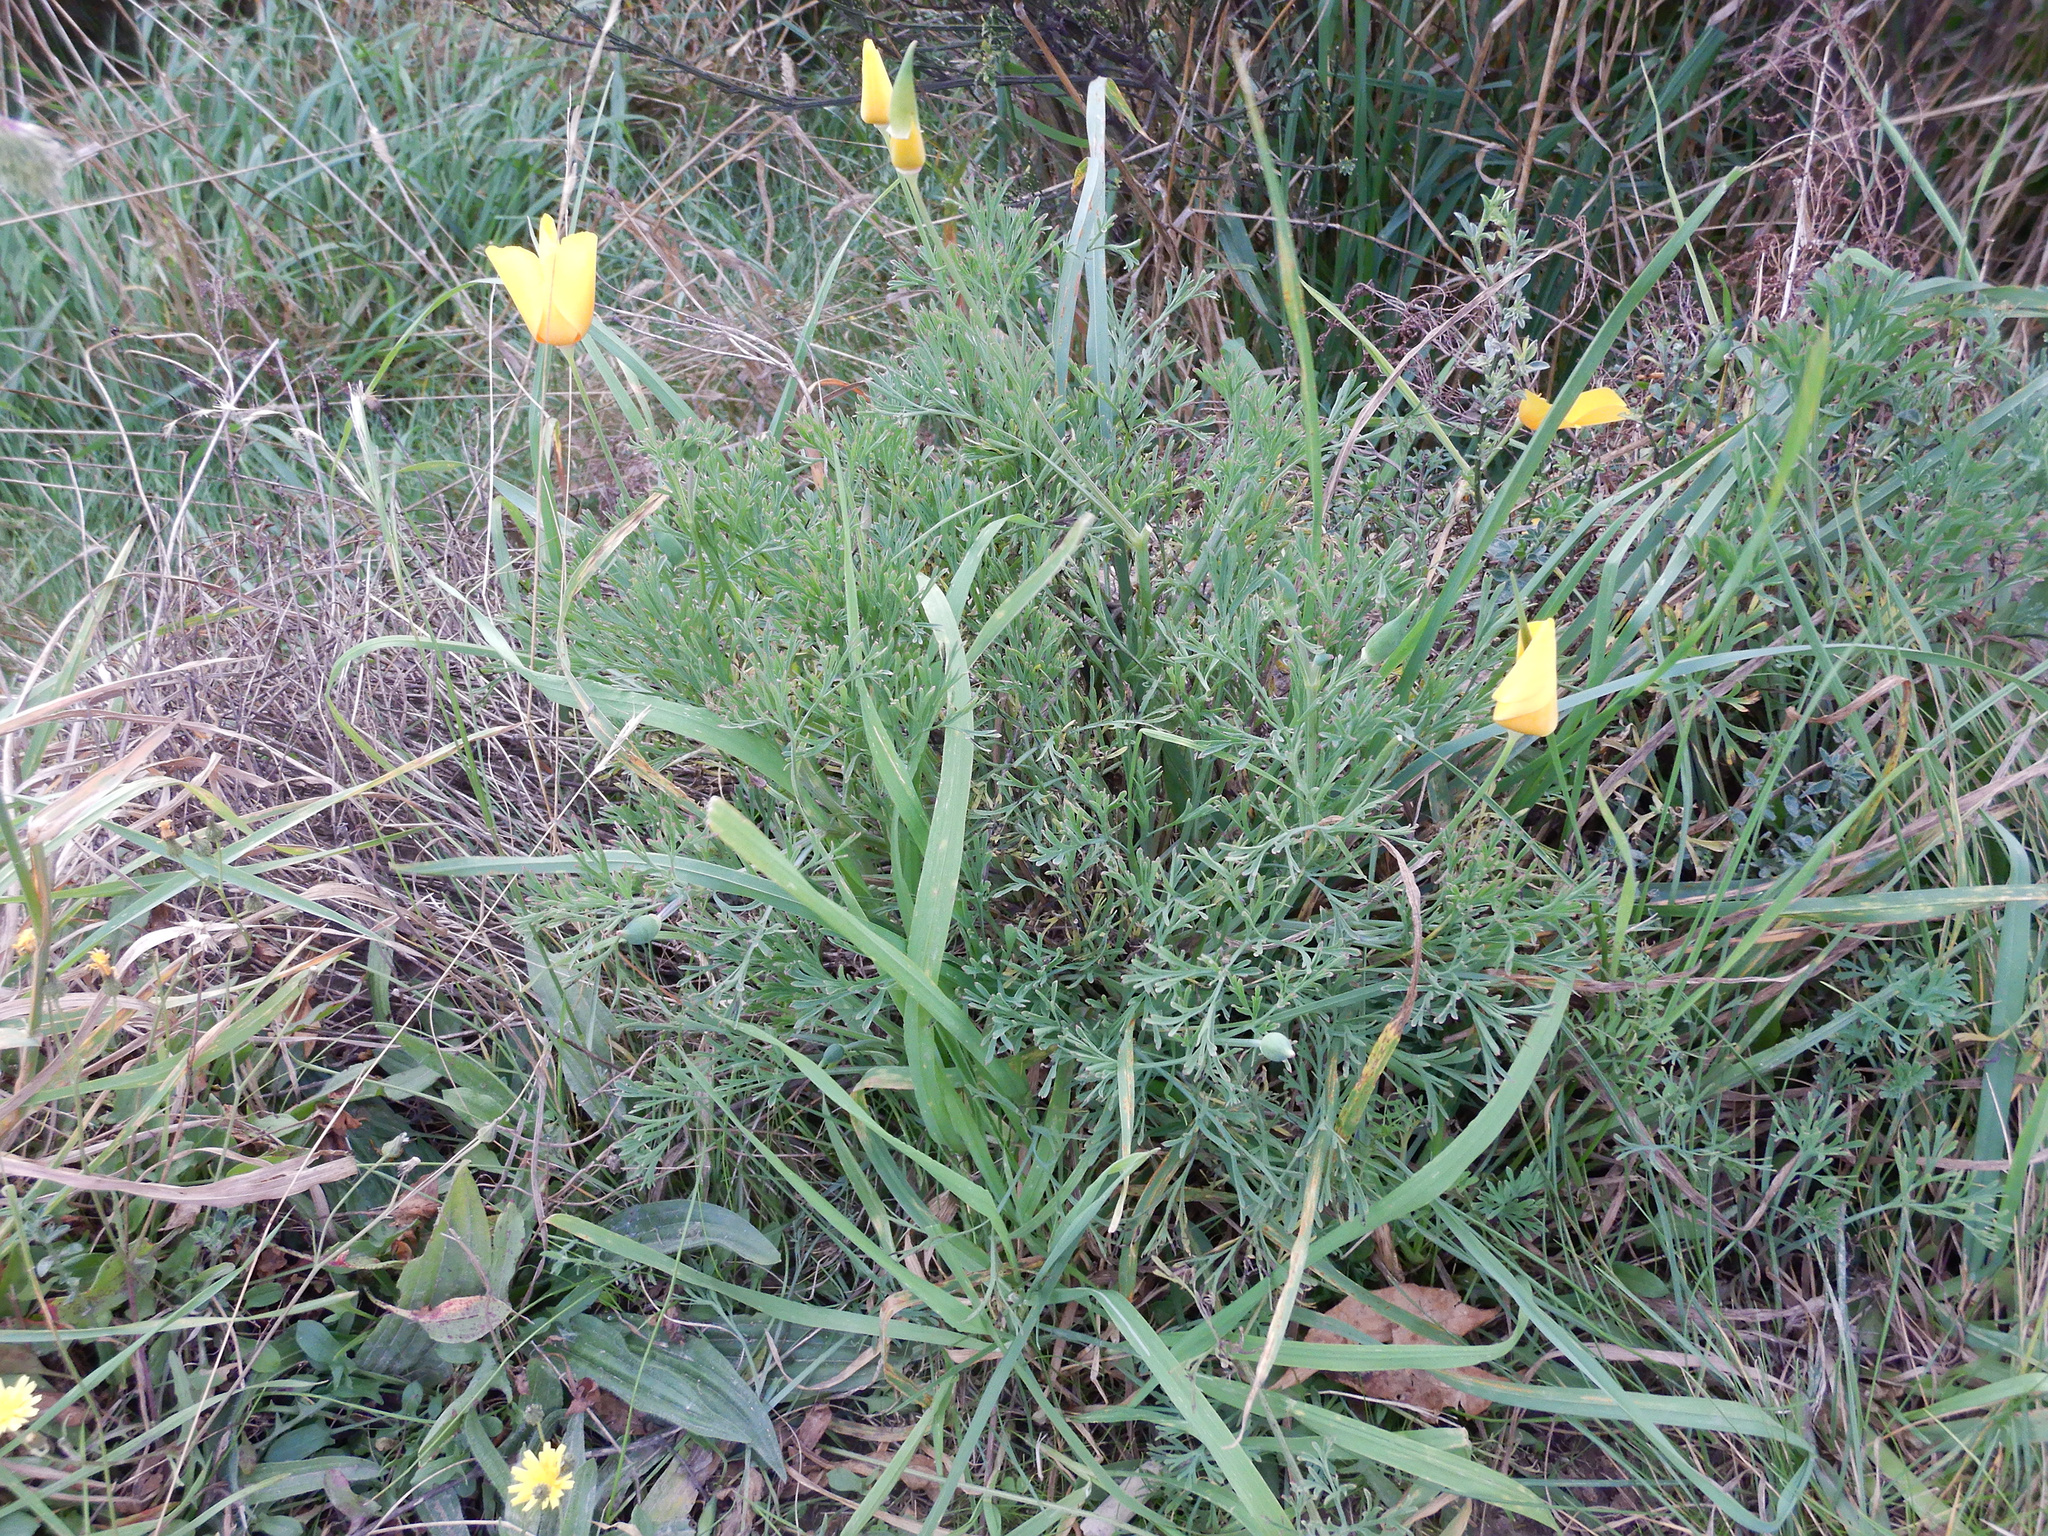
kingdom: Plantae
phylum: Tracheophyta
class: Magnoliopsida
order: Ranunculales
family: Papaveraceae
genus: Eschscholzia
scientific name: Eschscholzia californica
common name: California poppy
